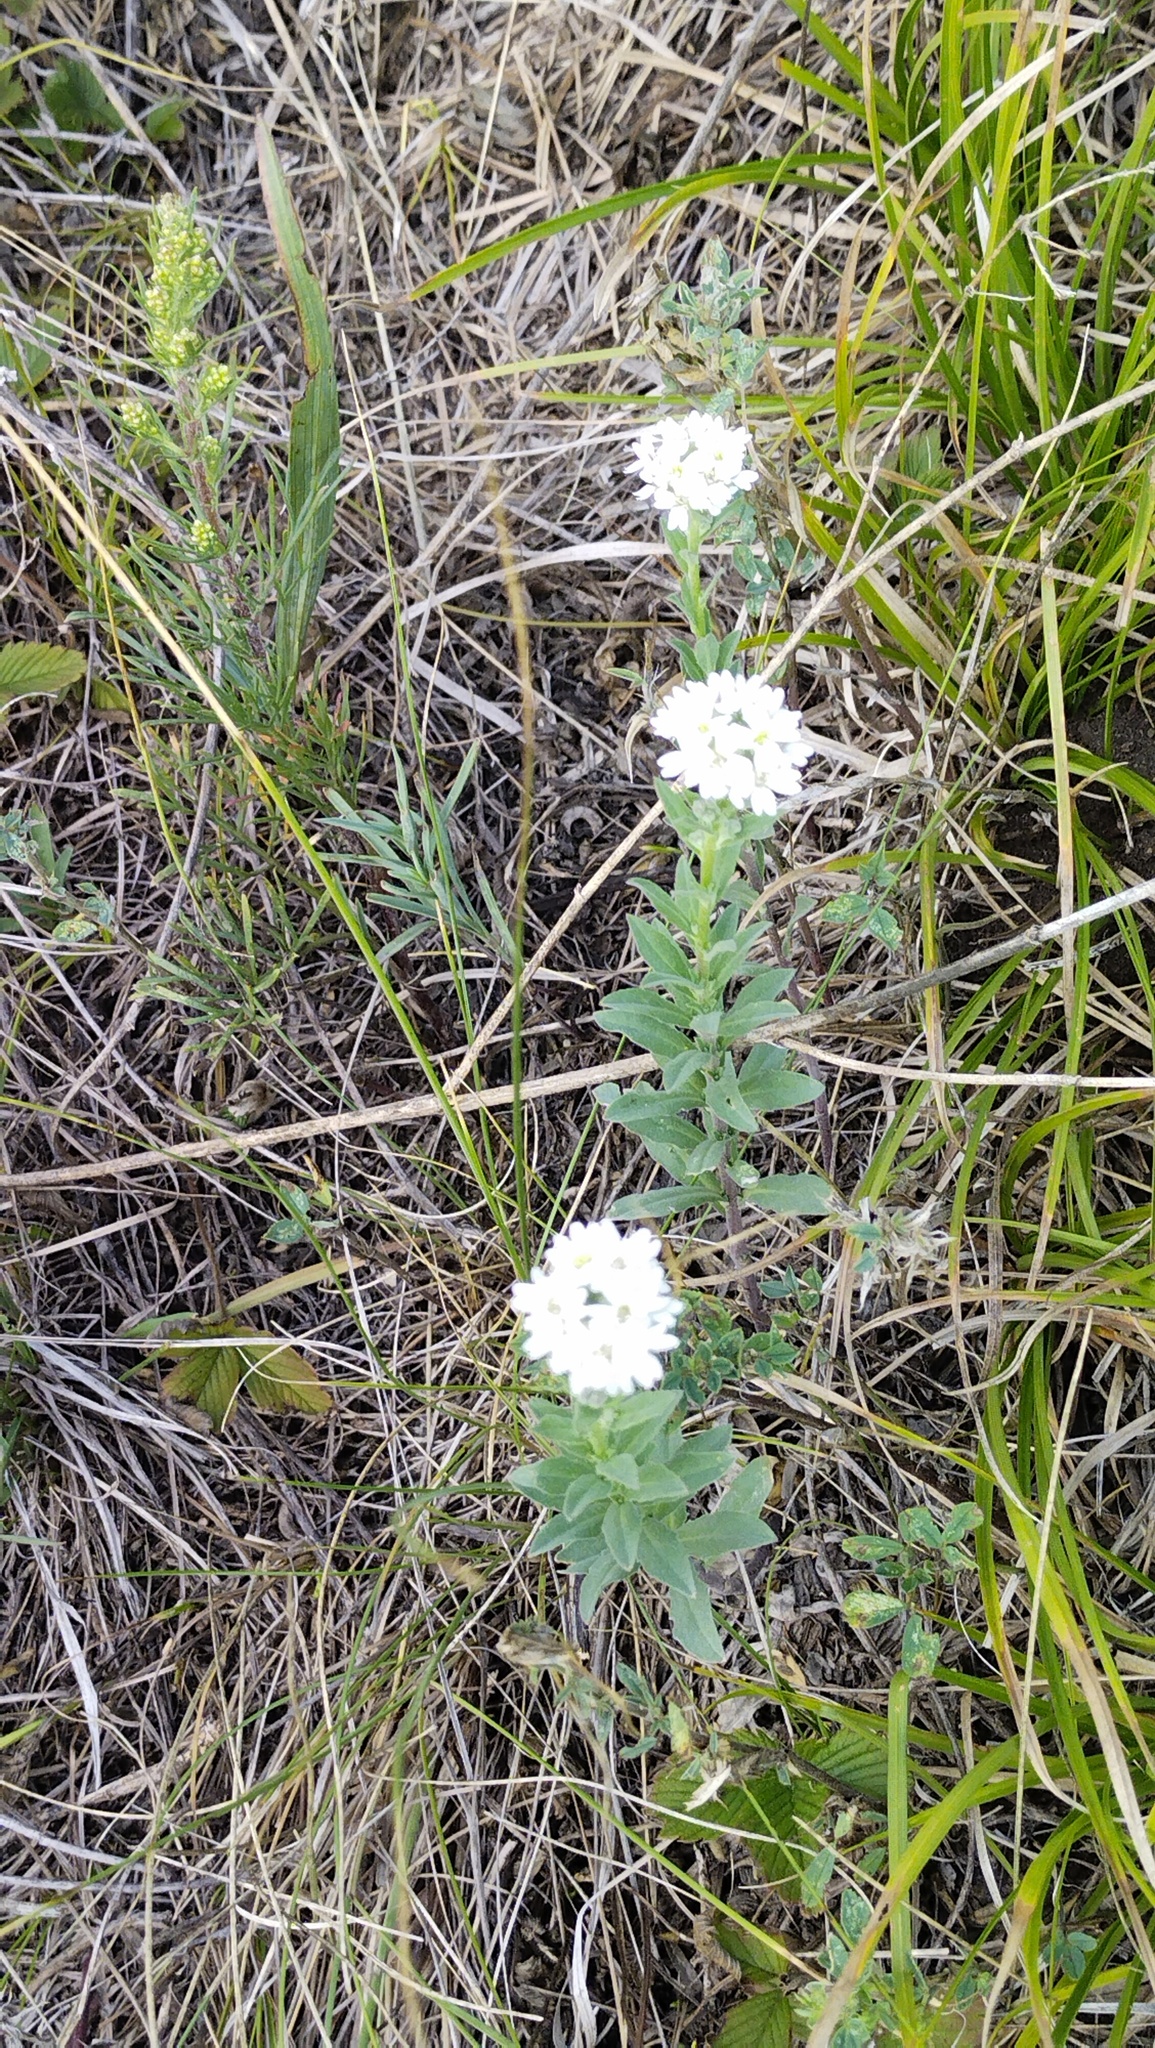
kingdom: Plantae
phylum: Tracheophyta
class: Magnoliopsida
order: Brassicales
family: Brassicaceae
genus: Berteroa
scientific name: Berteroa incana
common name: Hoary alison
